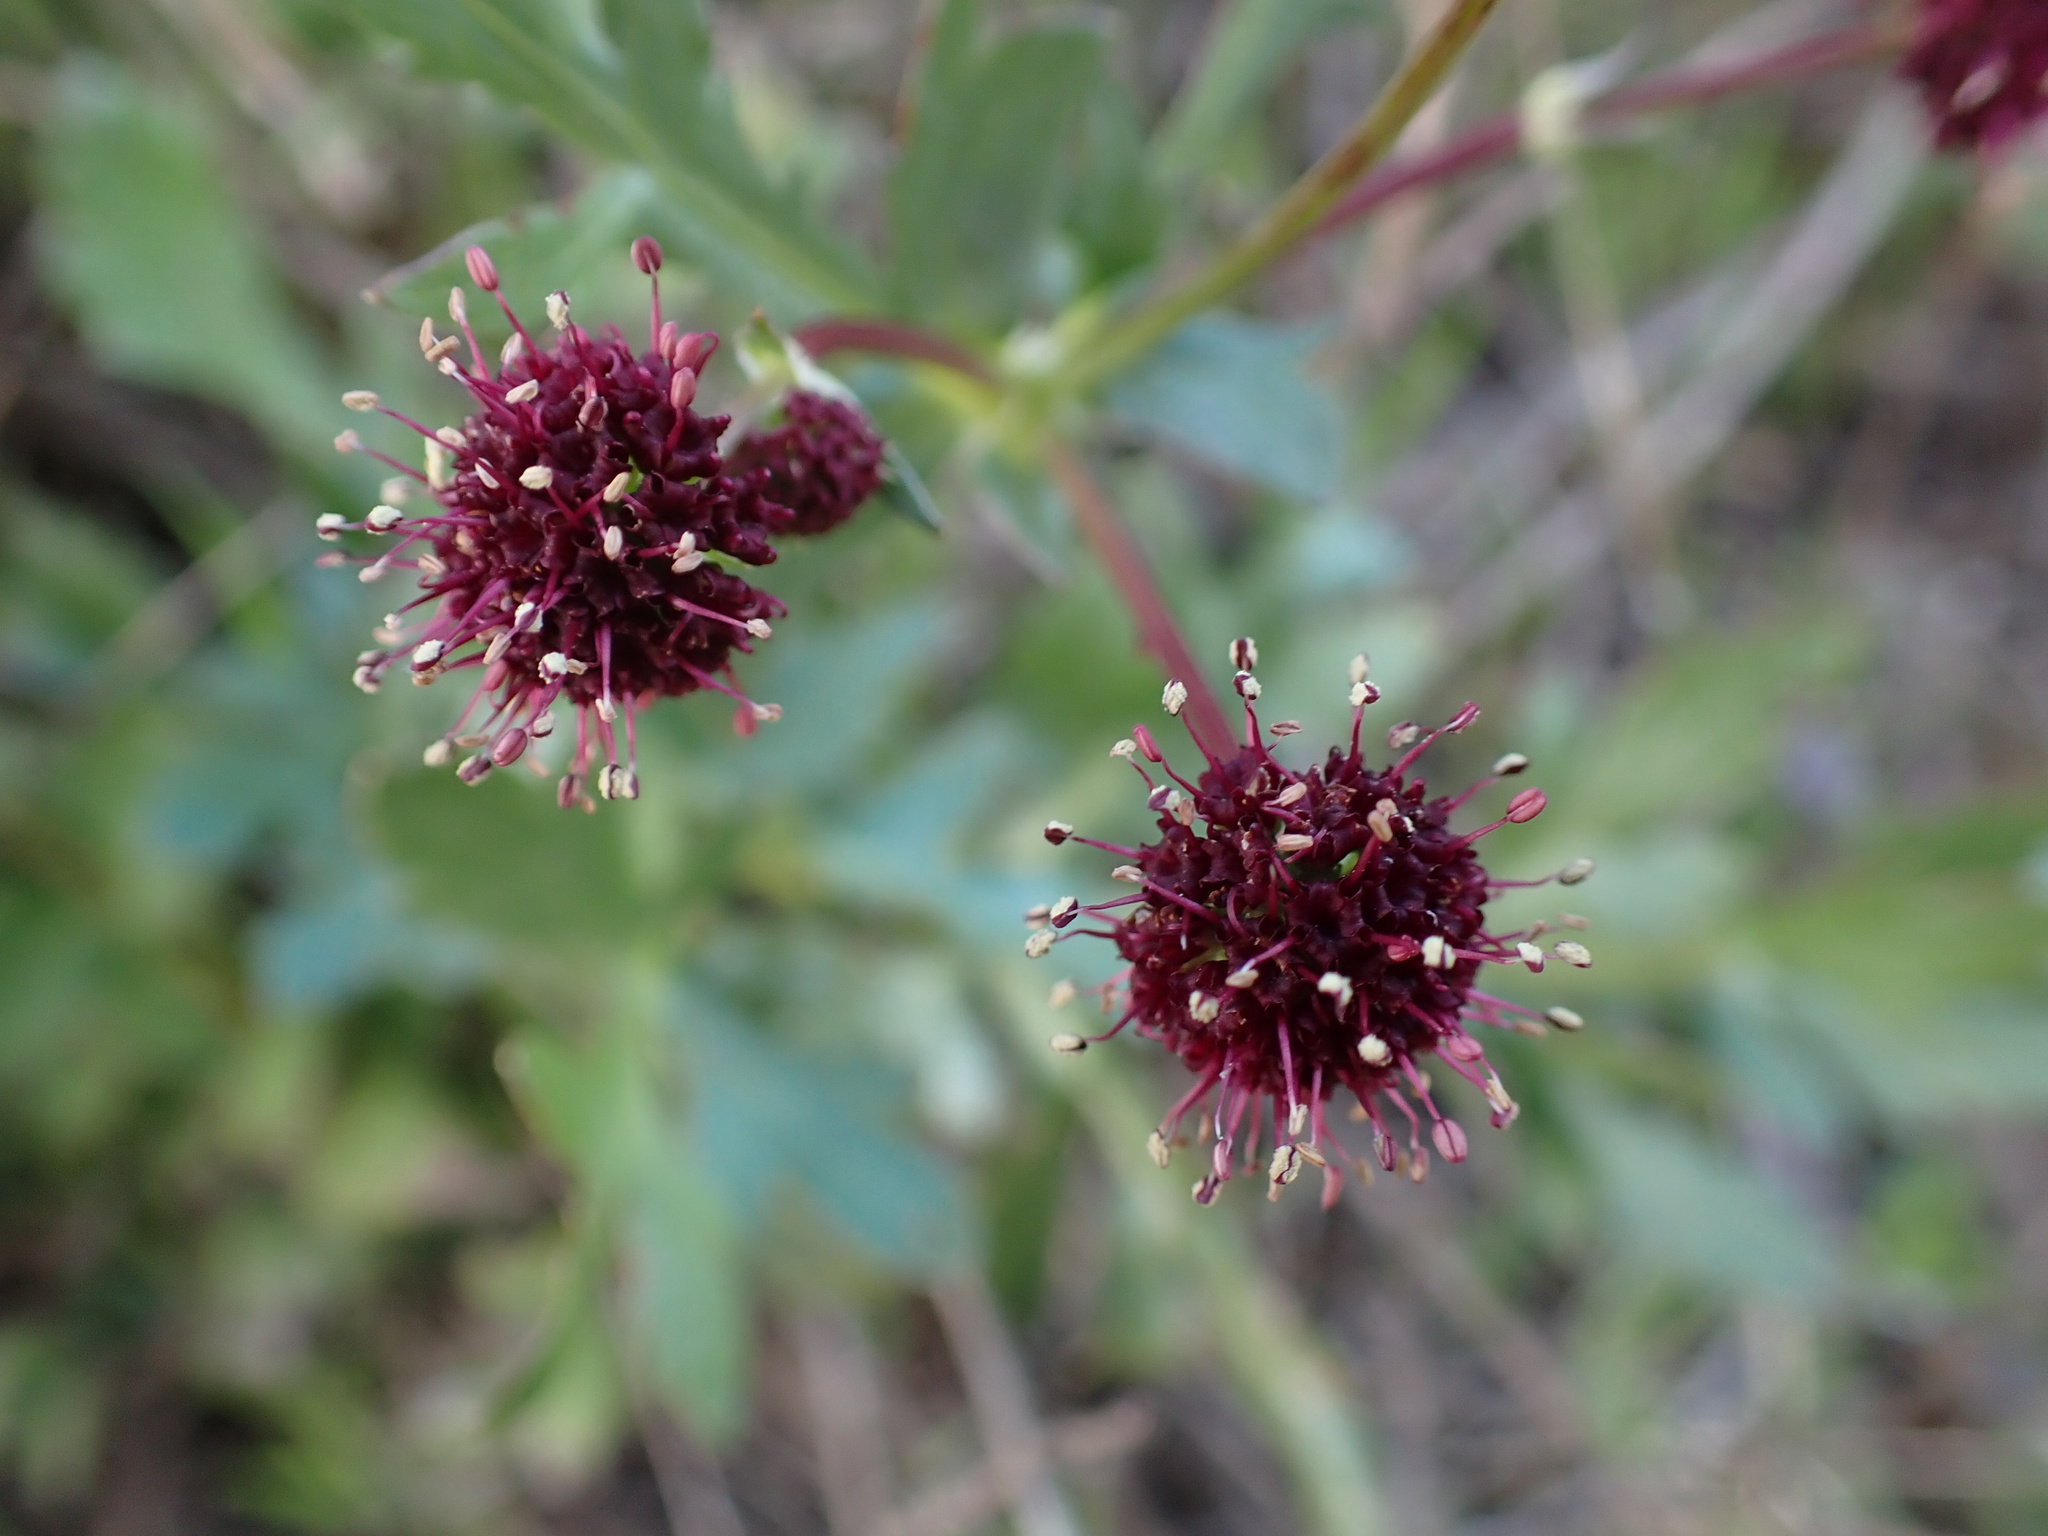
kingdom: Plantae
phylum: Tracheophyta
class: Magnoliopsida
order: Apiales
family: Apiaceae
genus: Sanicula
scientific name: Sanicula bipinnatifida
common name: Shoe-buttons
